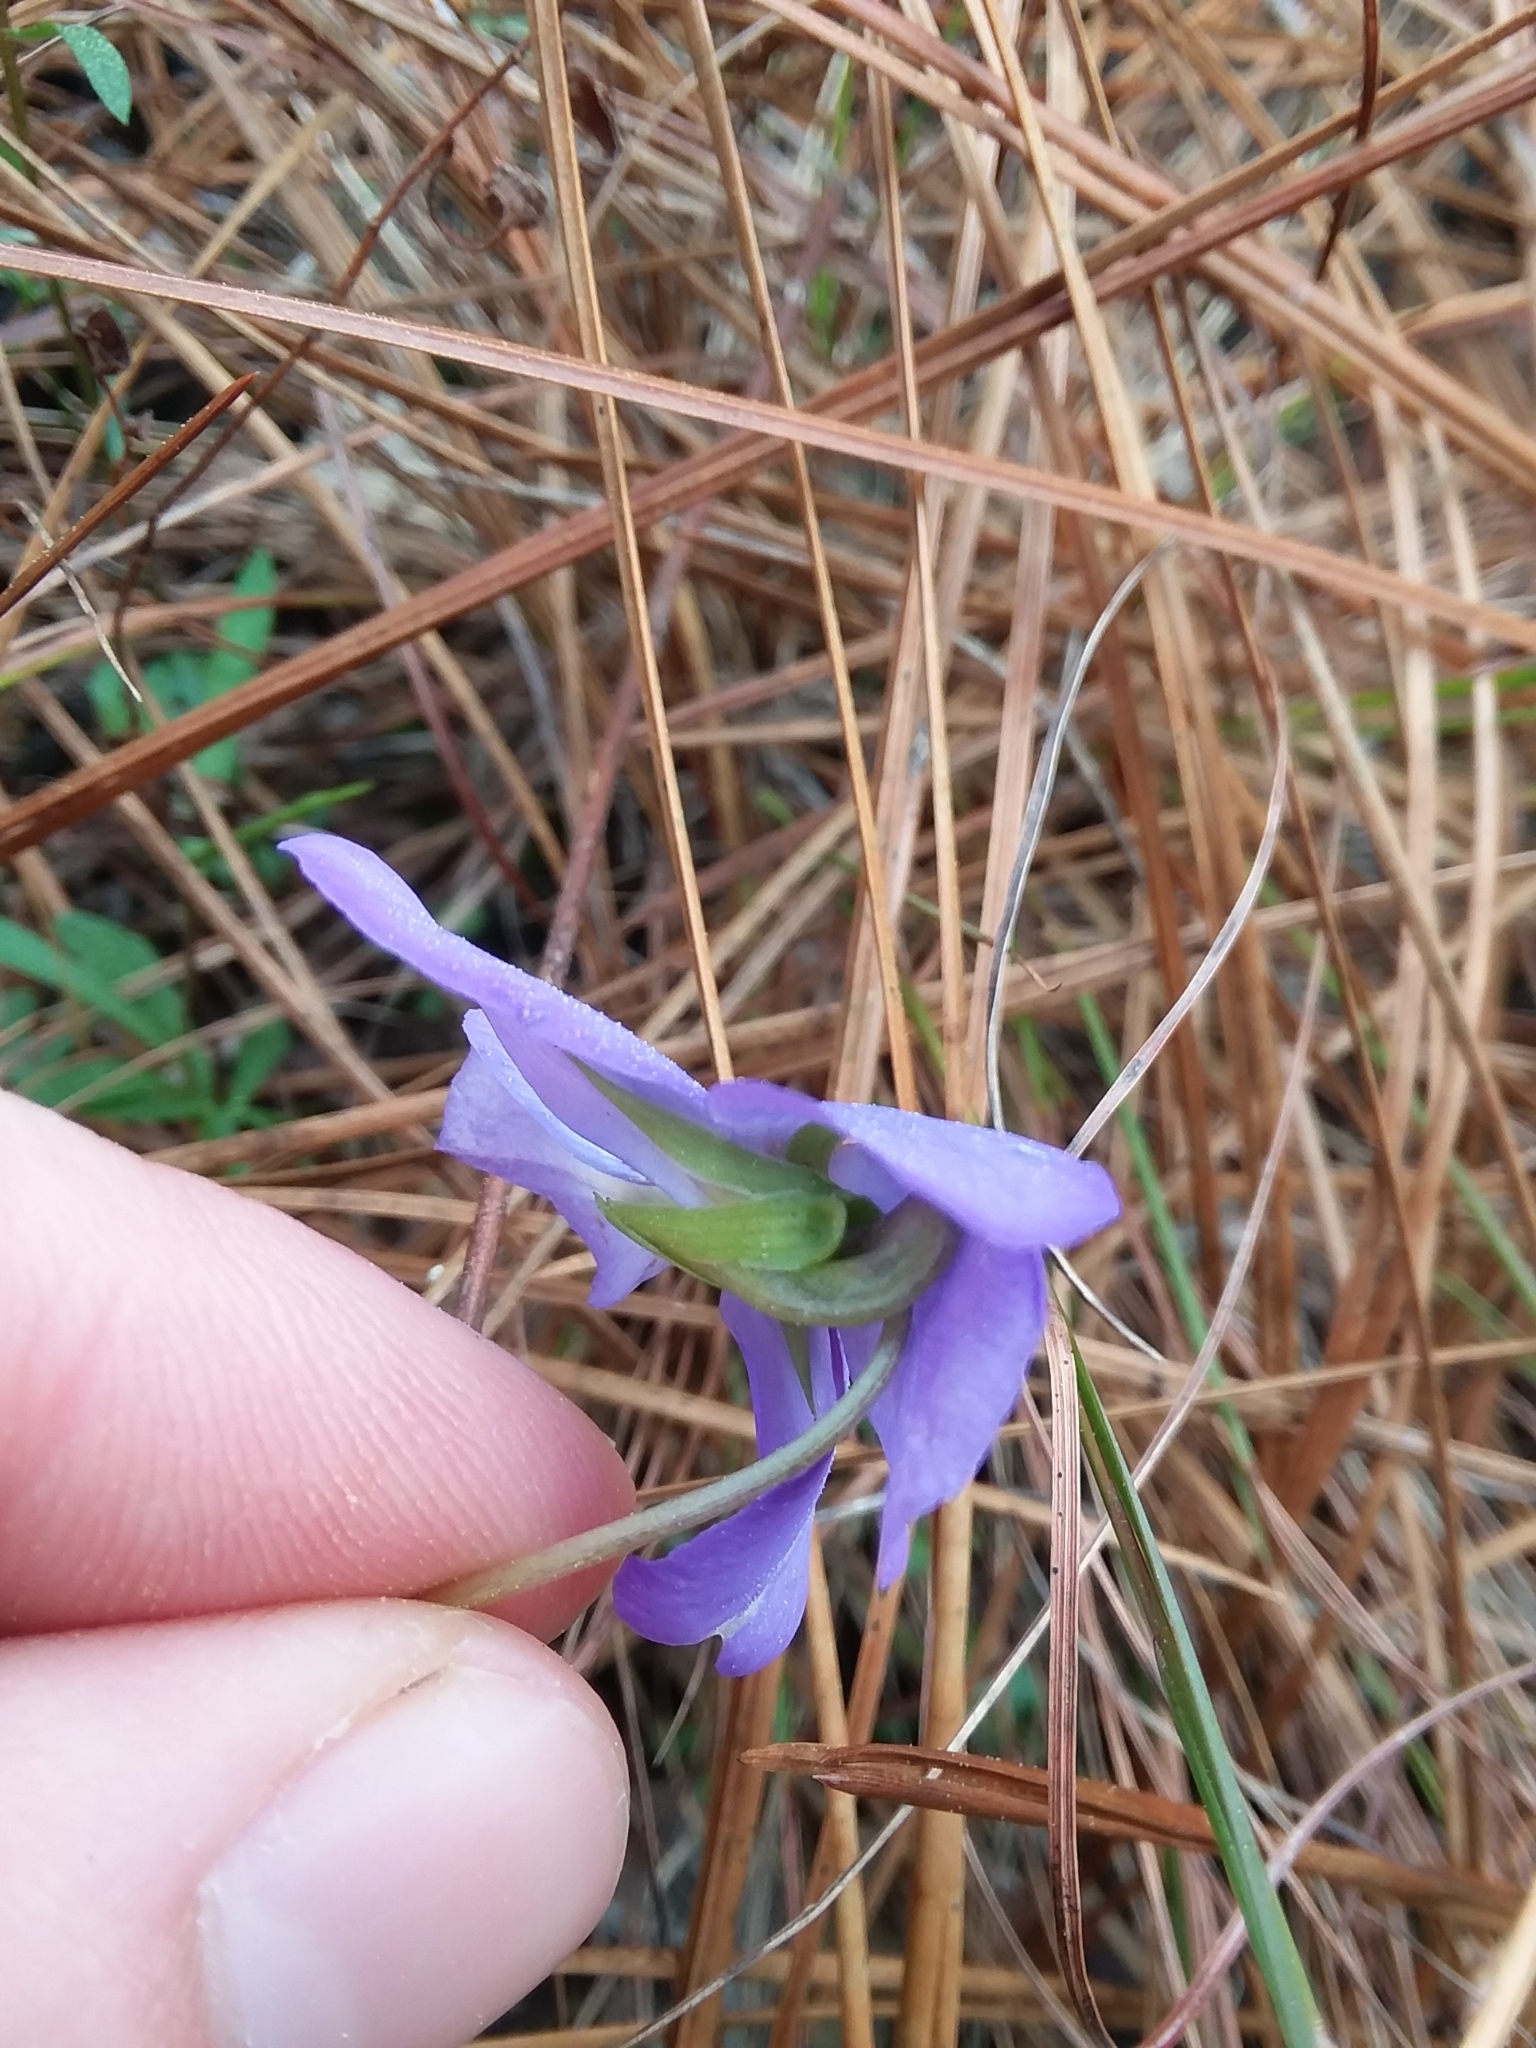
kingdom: Plantae
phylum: Tracheophyta
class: Magnoliopsida
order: Malpighiales
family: Violaceae
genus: Viola
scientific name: Viola pedata
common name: Pansy violet
